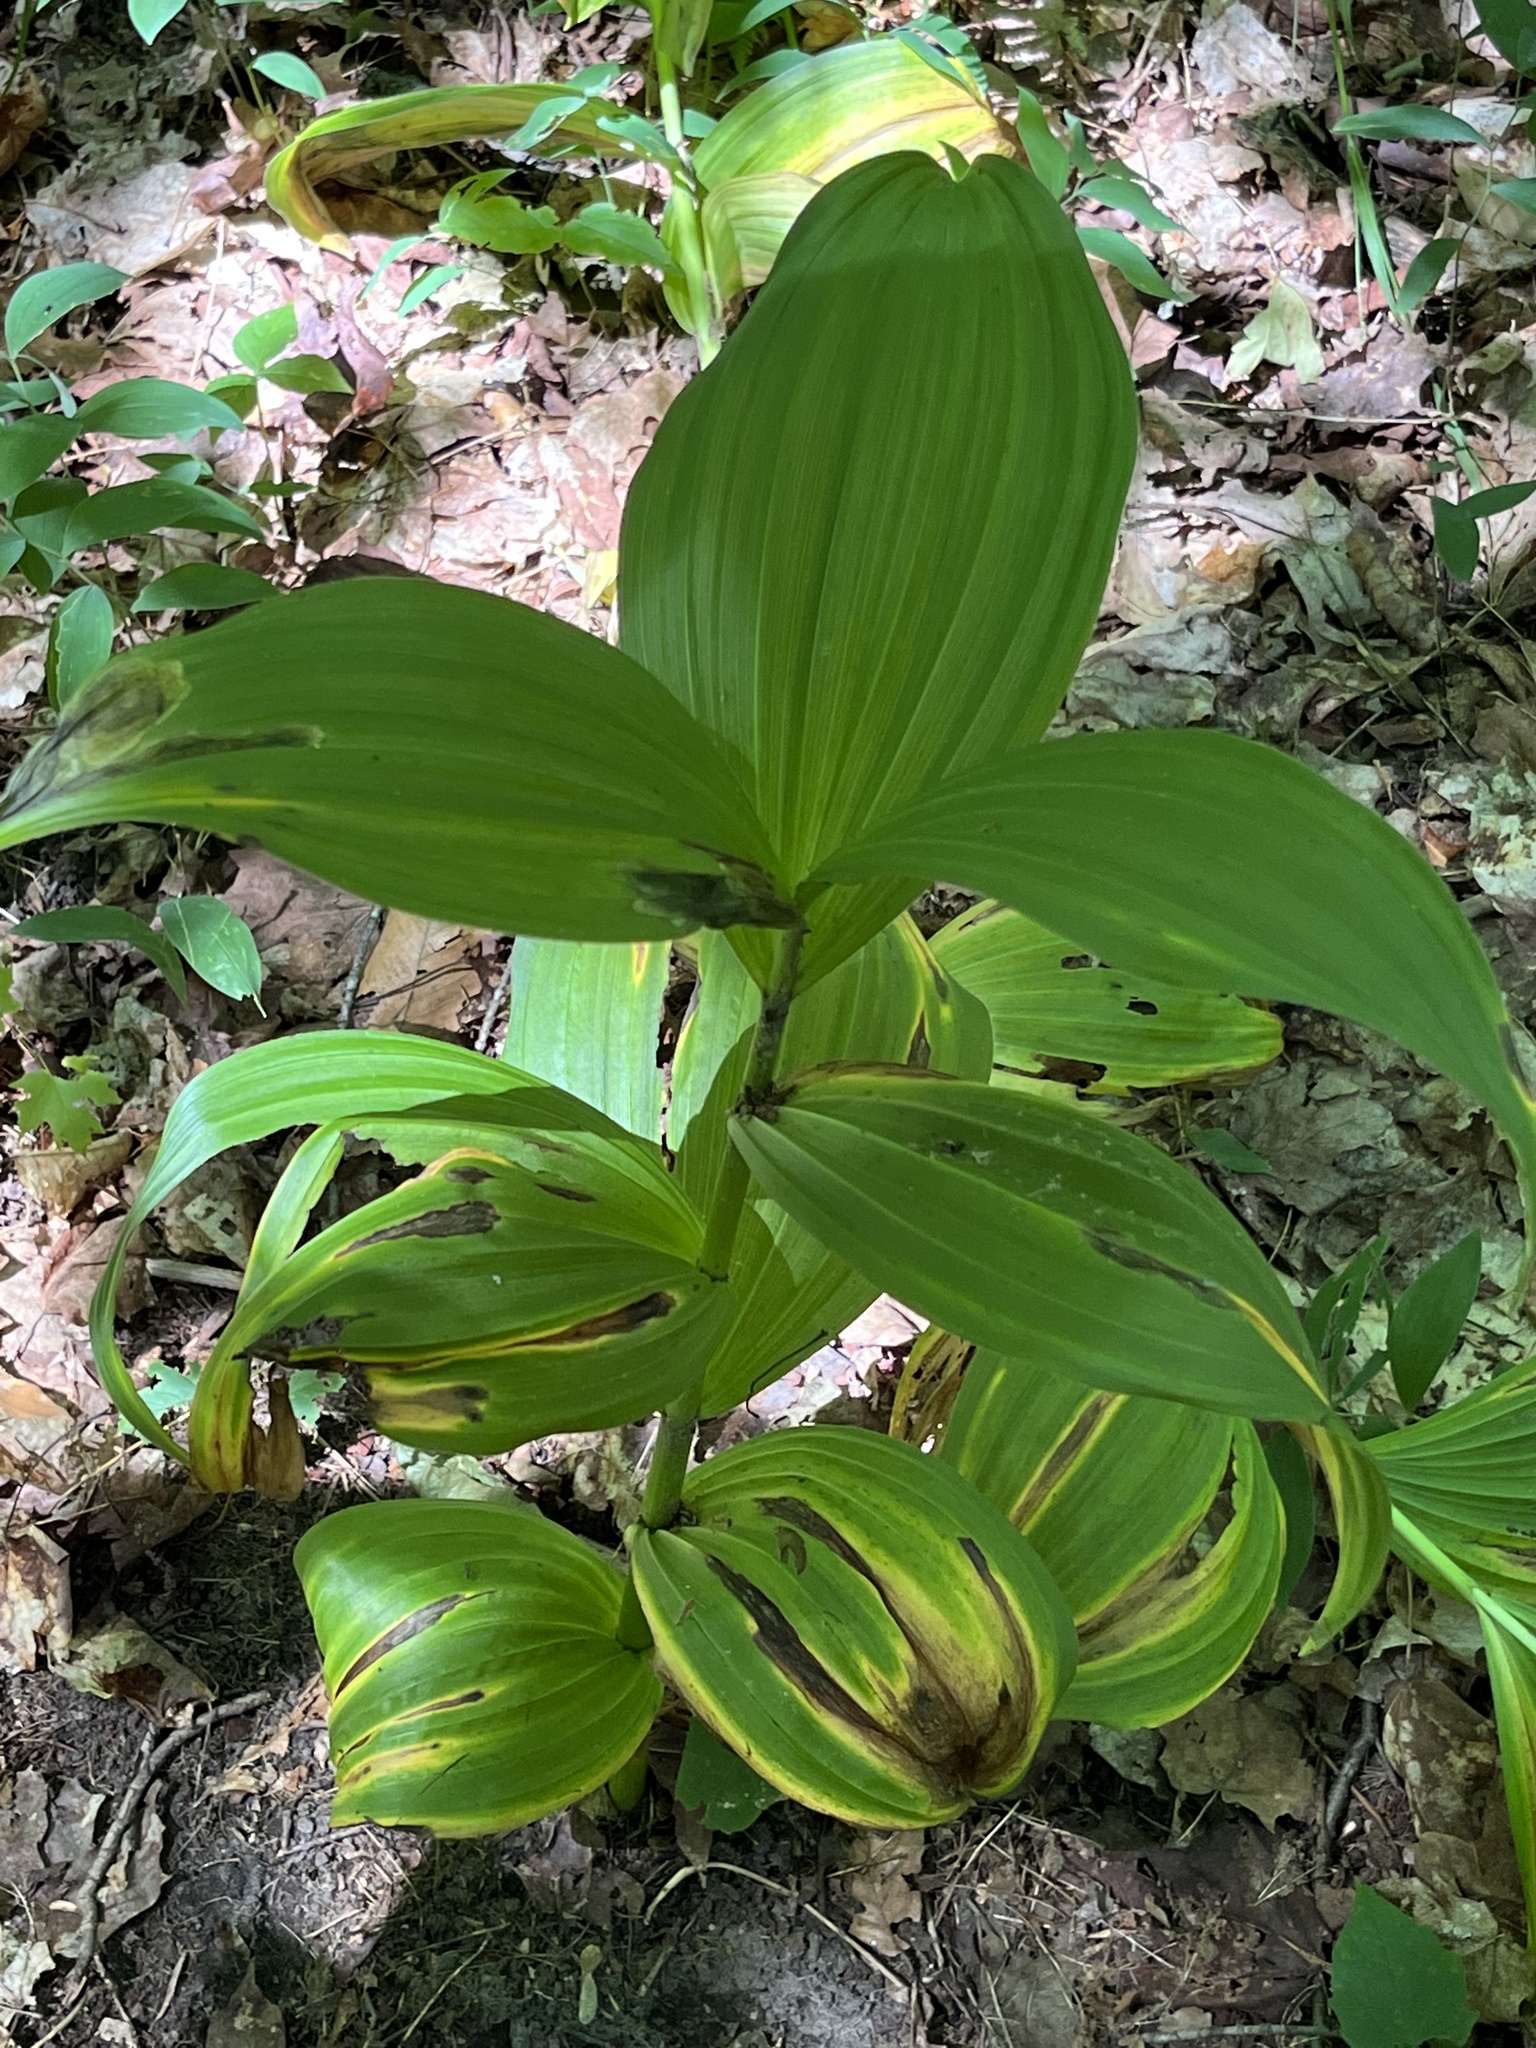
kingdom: Plantae
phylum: Tracheophyta
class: Liliopsida
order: Liliales
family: Melanthiaceae
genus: Veratrum
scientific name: Veratrum viride
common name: American false hellebore
